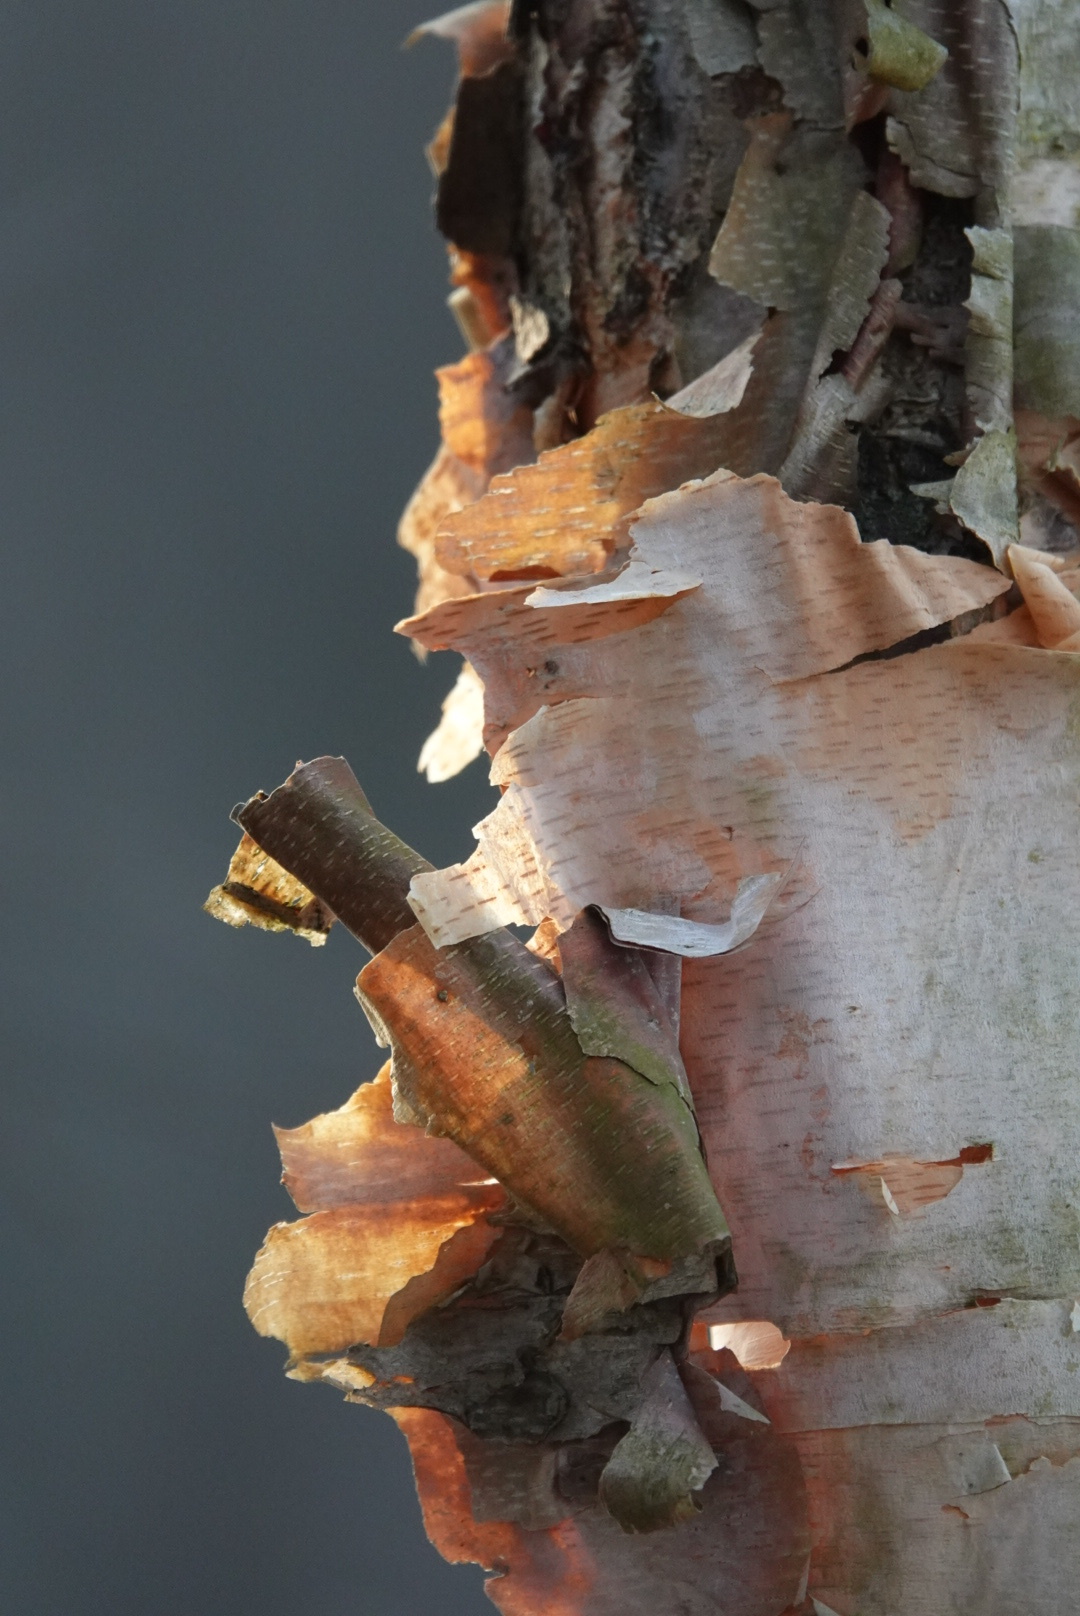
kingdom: Plantae
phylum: Tracheophyta
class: Magnoliopsida
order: Fagales
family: Betulaceae
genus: Betula
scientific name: Betula nigra
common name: Black birch
